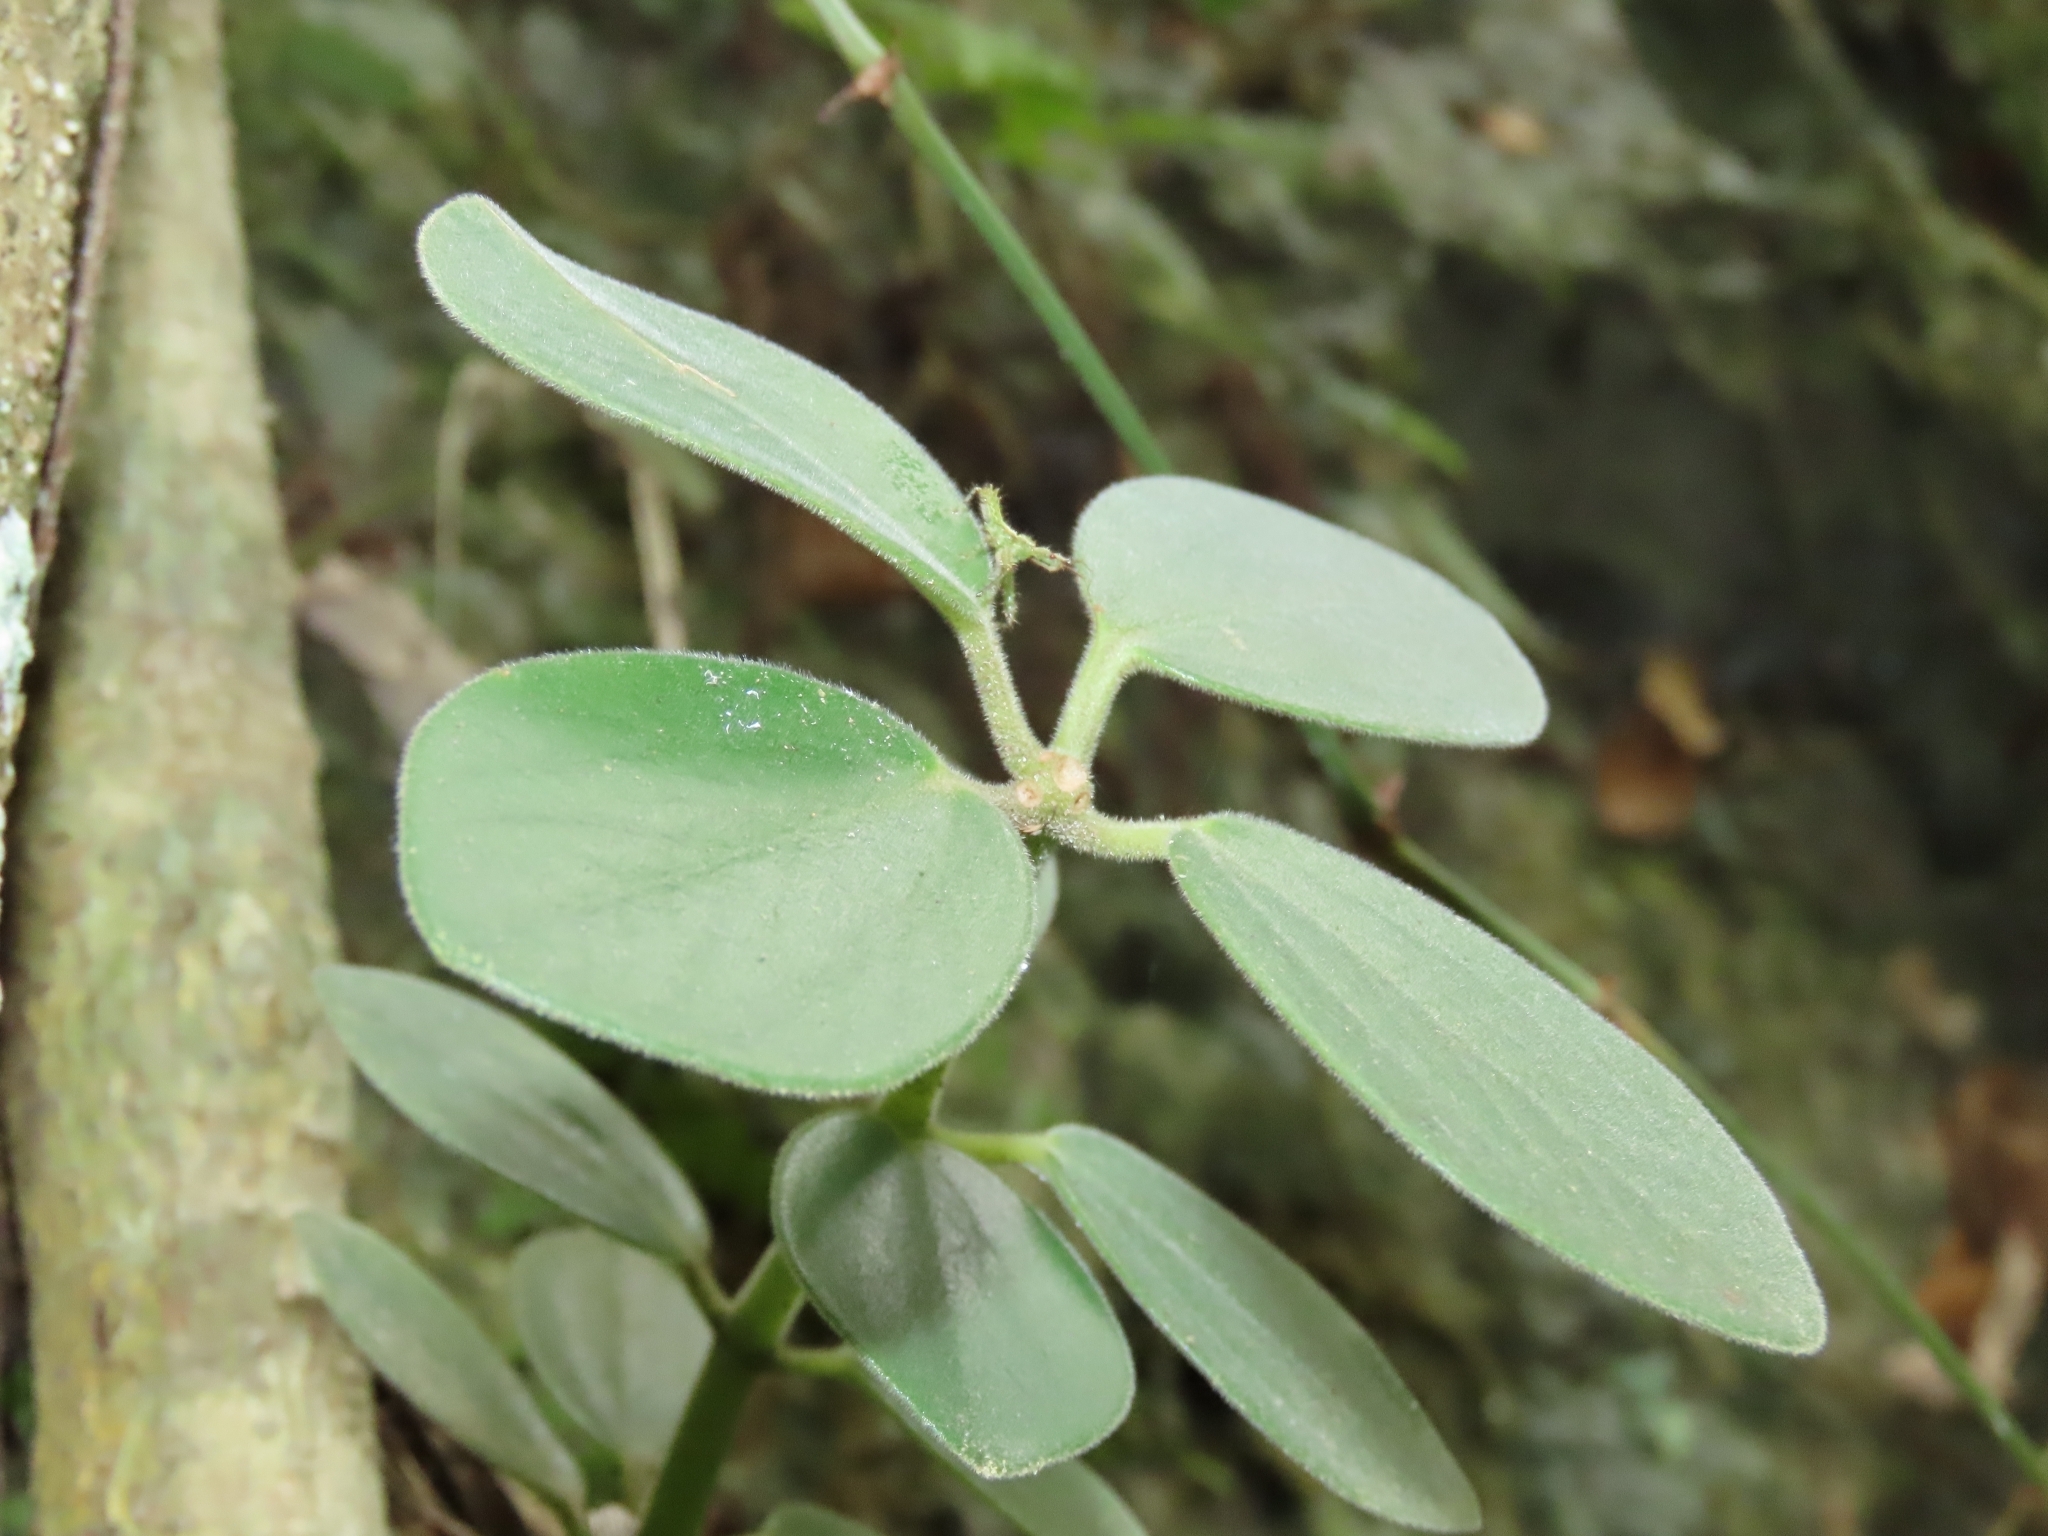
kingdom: Plantae
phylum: Tracheophyta
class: Magnoliopsida
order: Piperales
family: Piperaceae
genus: Peperomia
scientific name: Peperomia japonica
